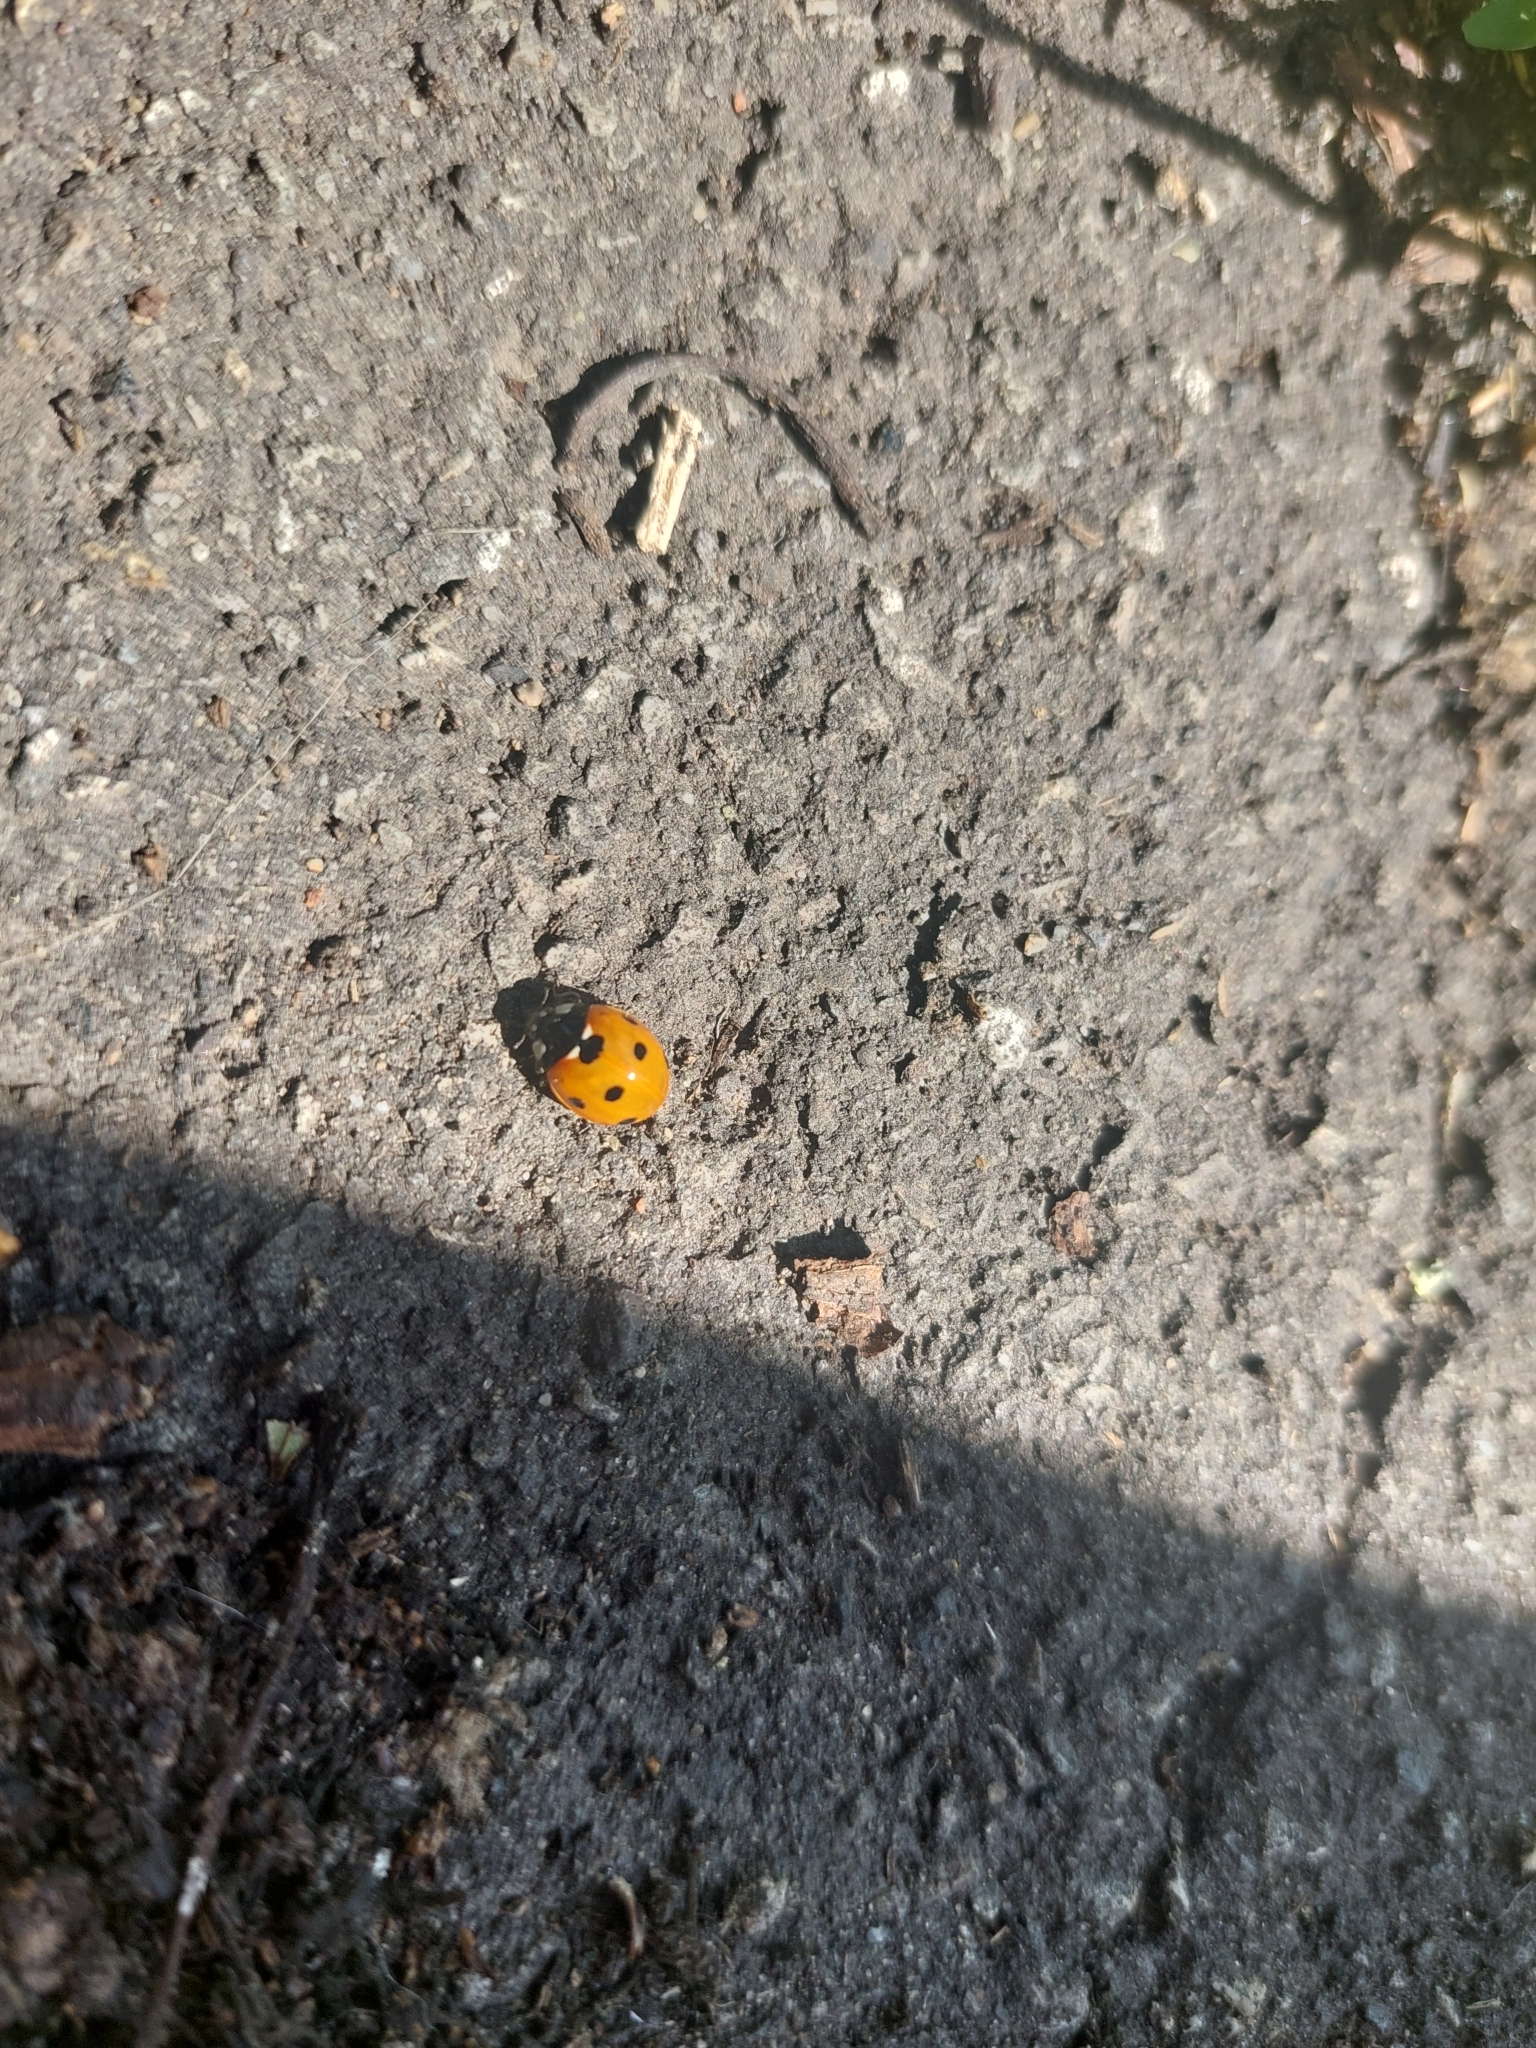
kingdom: Animalia
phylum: Arthropoda
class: Insecta
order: Coleoptera
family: Coccinellidae
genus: Coccinella
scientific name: Coccinella septempunctata
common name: Sevenspotted lady beetle
